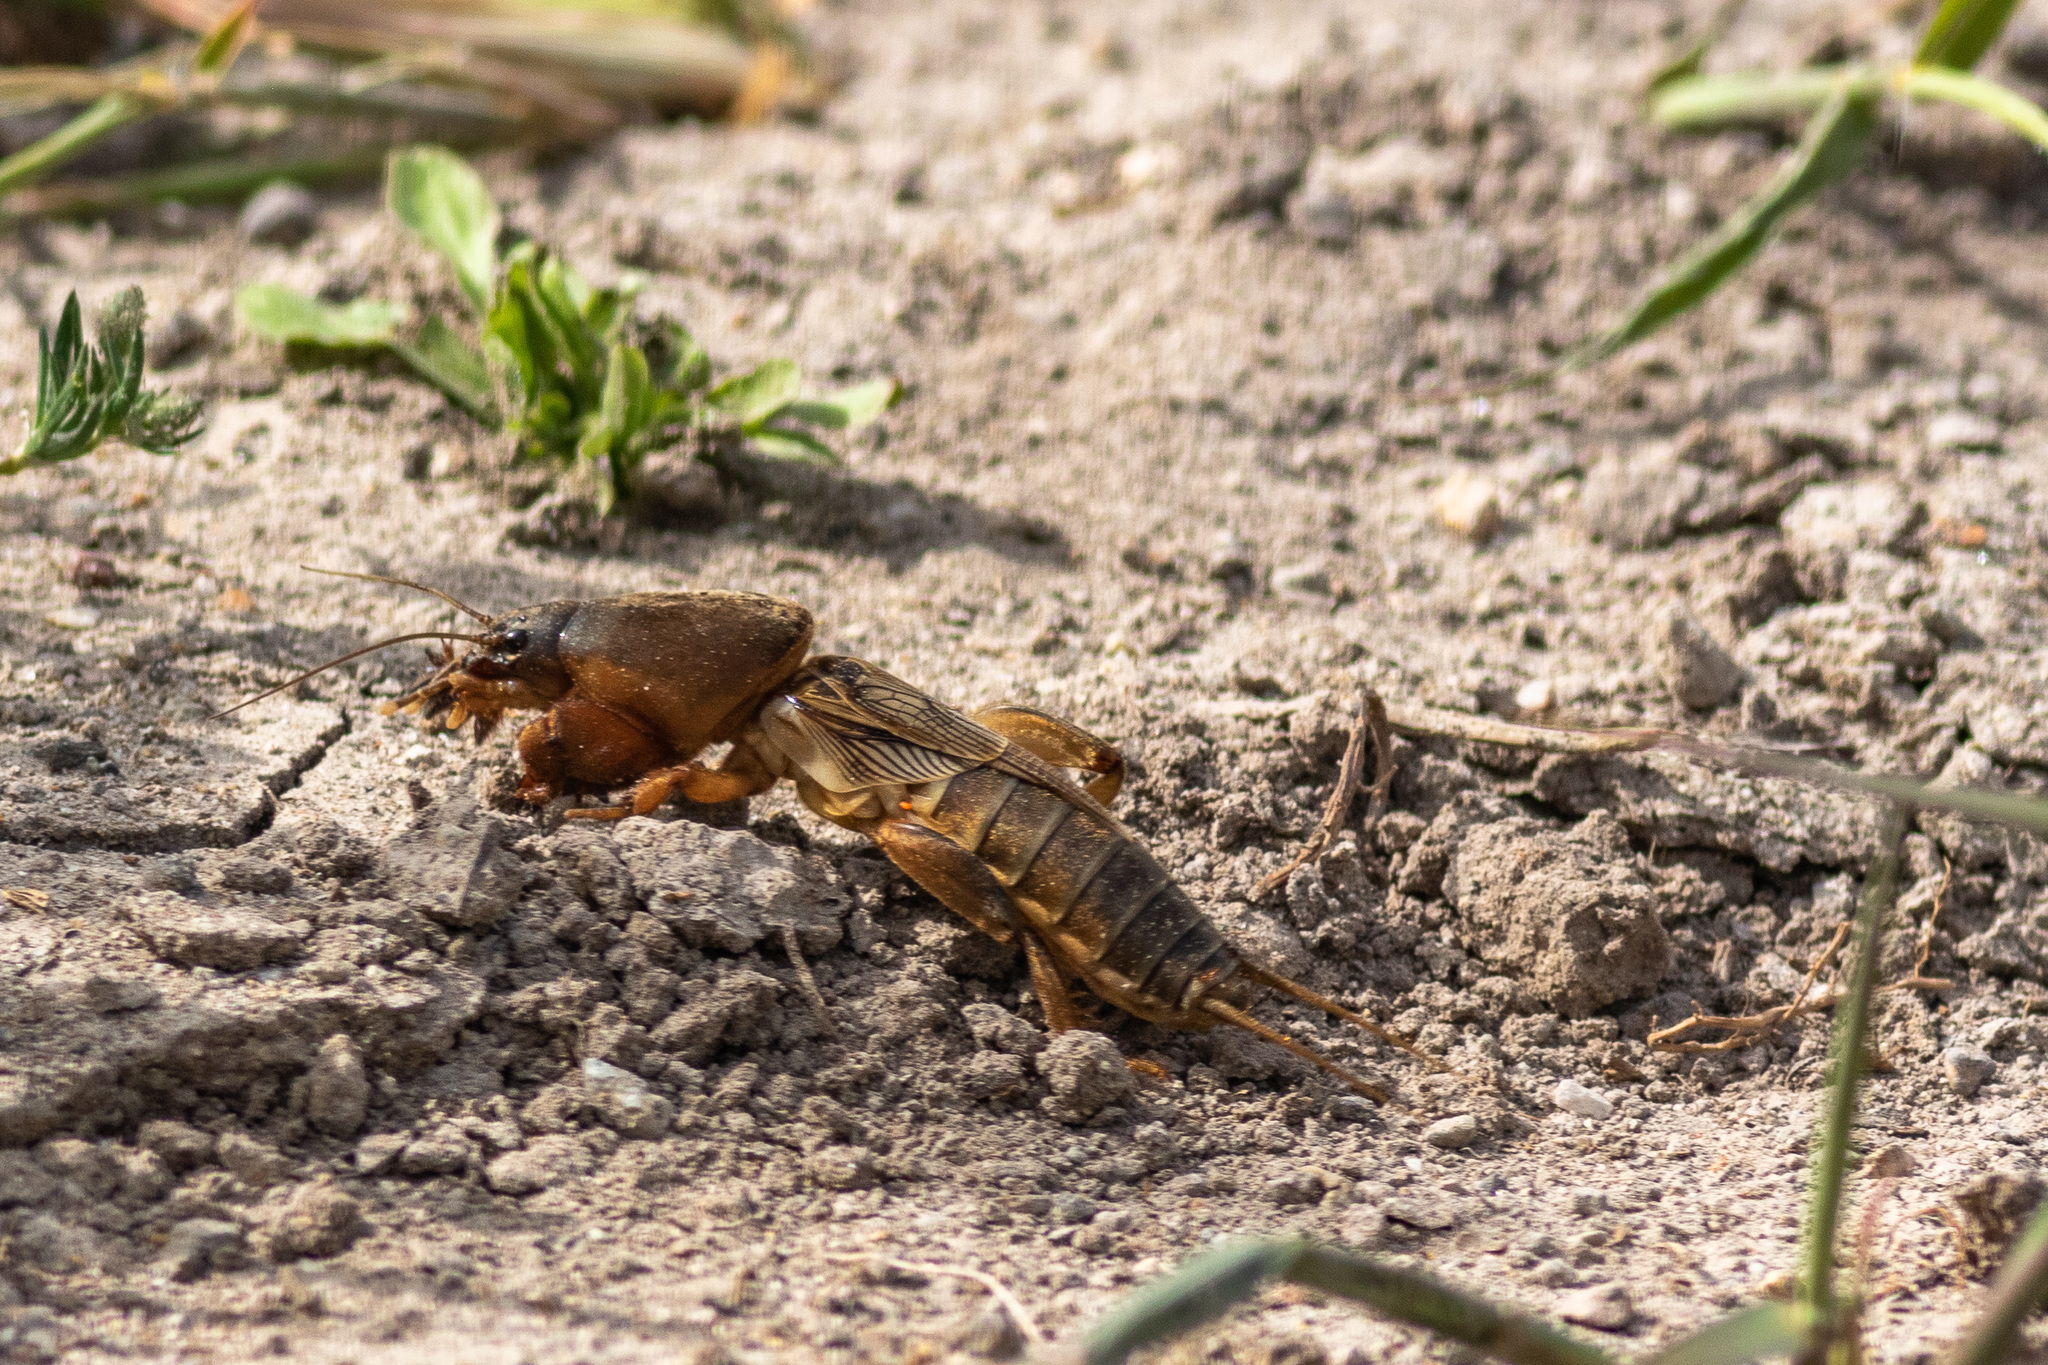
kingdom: Animalia
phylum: Arthropoda
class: Insecta
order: Orthoptera
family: Gryllotalpidae
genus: Gryllotalpa
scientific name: Gryllotalpa stepposa
